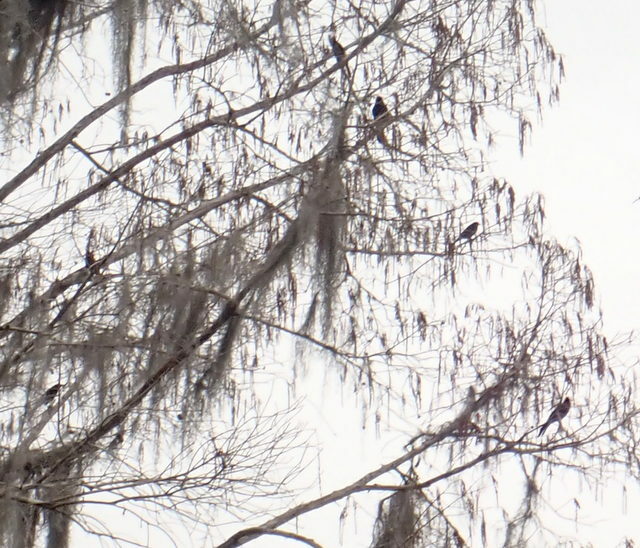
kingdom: Animalia
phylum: Chordata
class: Aves
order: Passeriformes
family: Icteridae
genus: Agelaius
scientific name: Agelaius phoeniceus
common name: Red-winged blackbird
